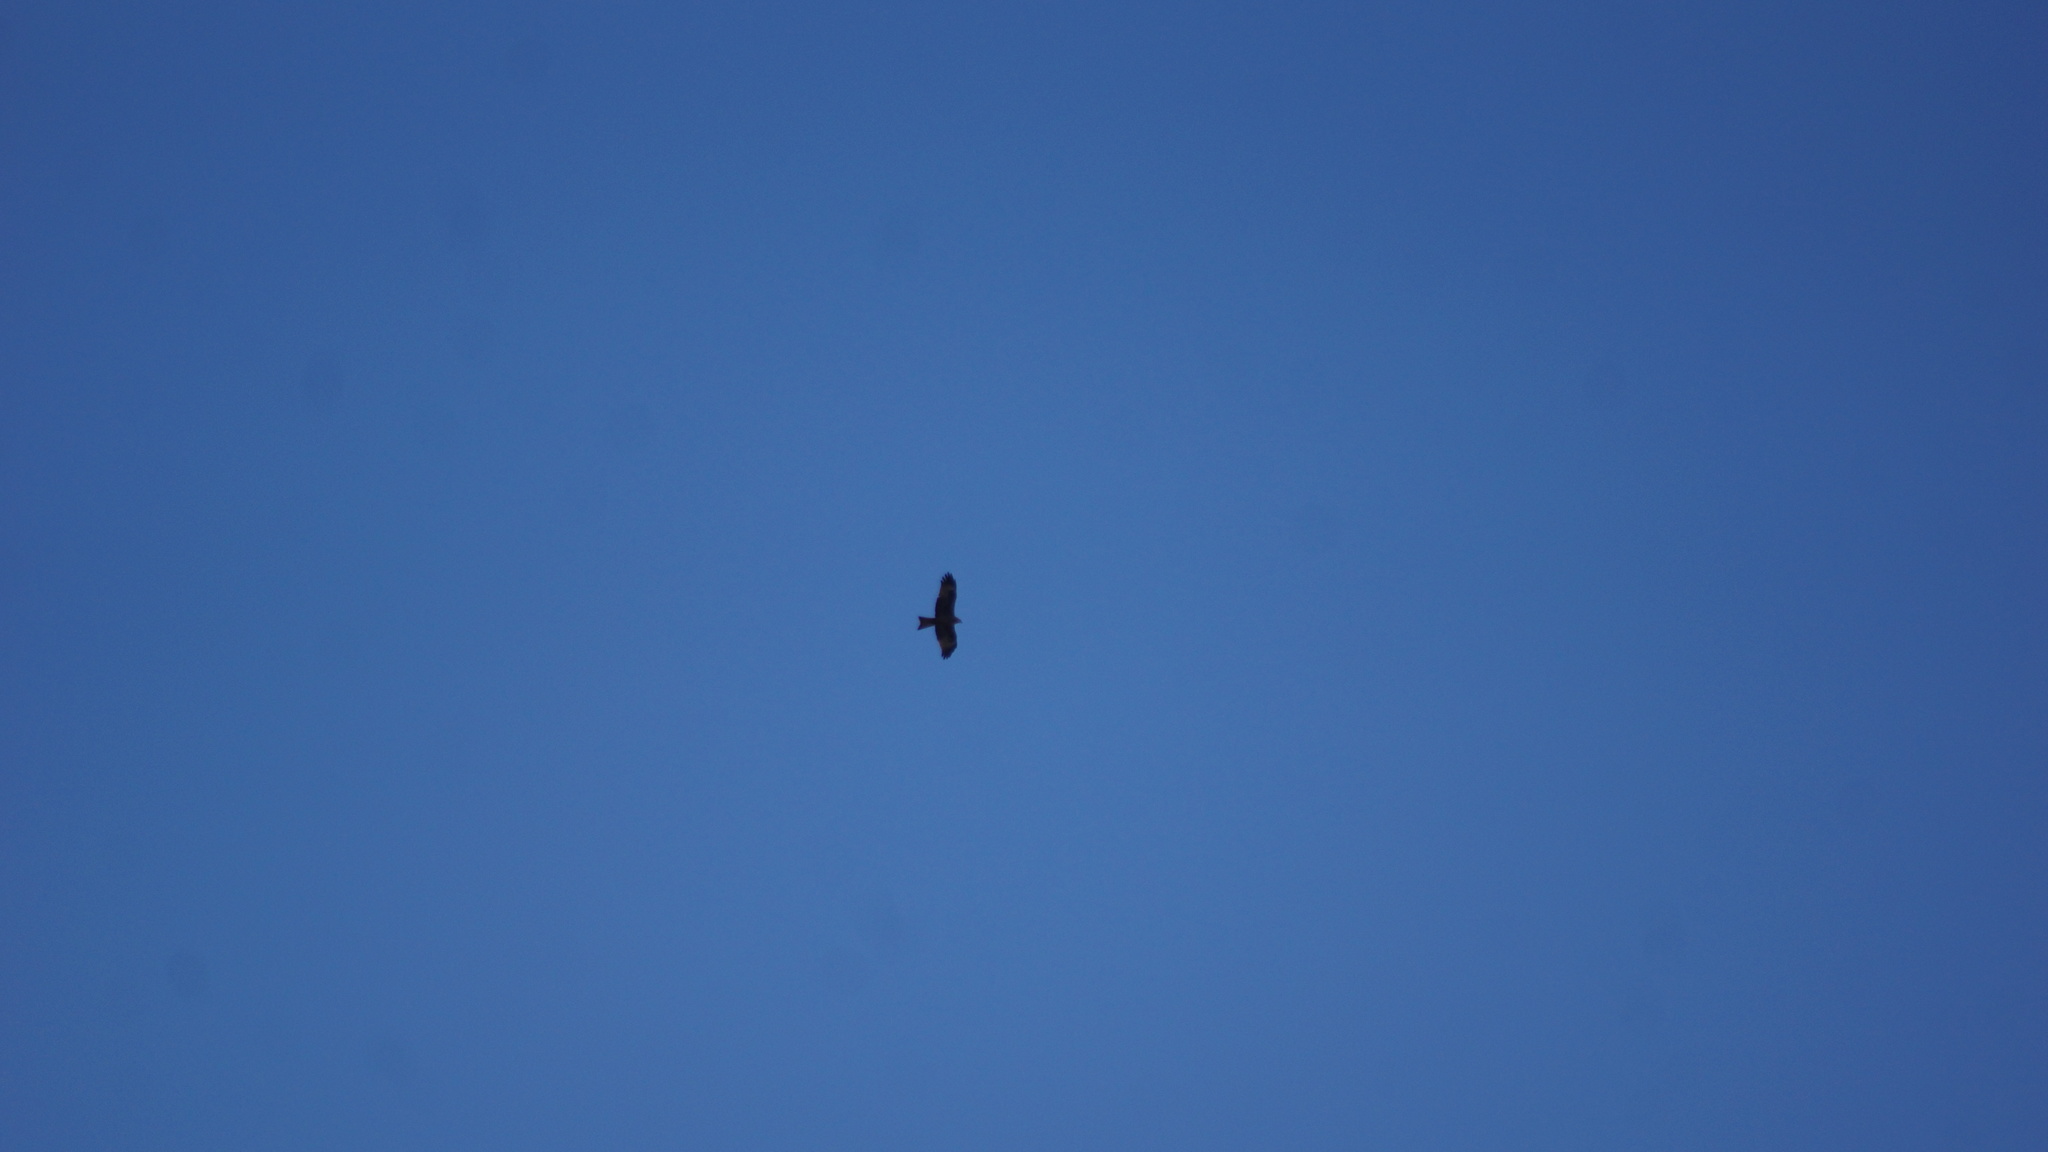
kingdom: Animalia
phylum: Chordata
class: Aves
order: Accipitriformes
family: Accipitridae
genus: Milvus
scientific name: Milvus migrans
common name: Black kite
